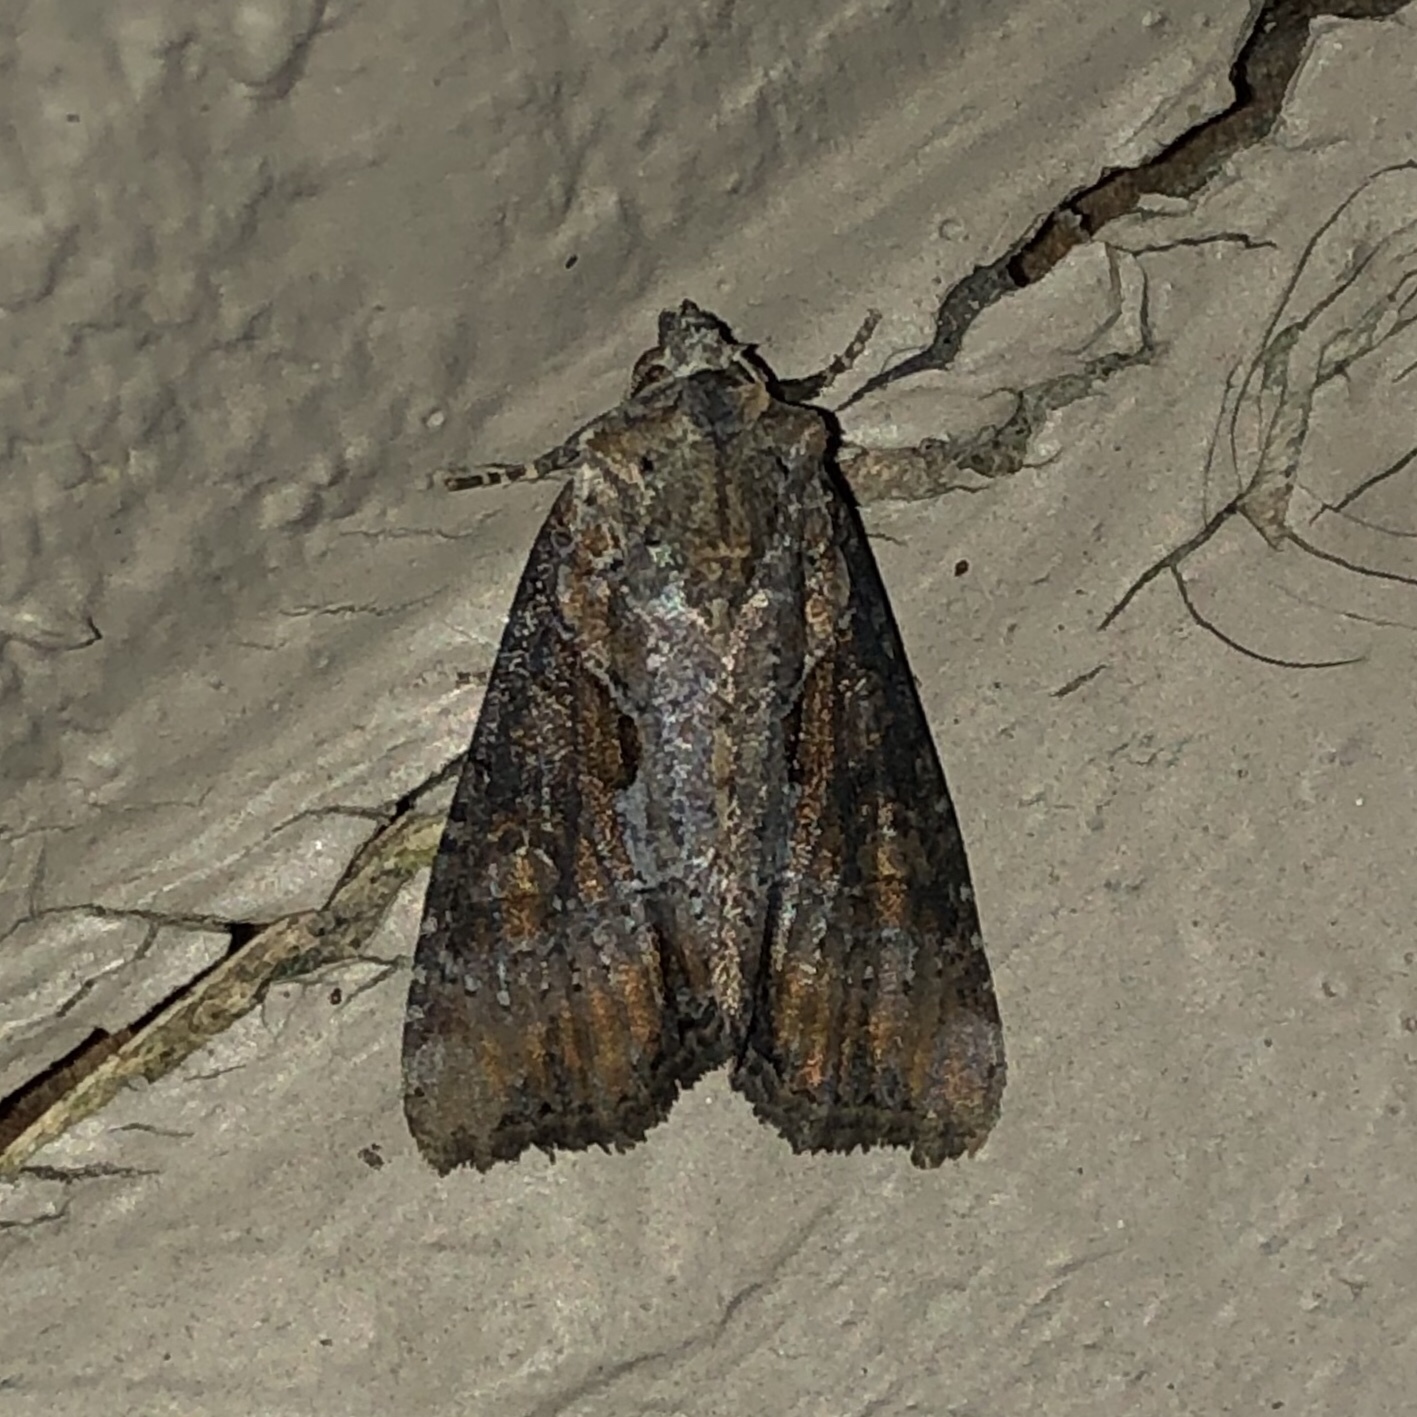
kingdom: Animalia
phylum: Arthropoda
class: Insecta
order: Lepidoptera
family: Noctuidae
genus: Lateroligia
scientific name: Lateroligia ophiogramma
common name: Double lobed
